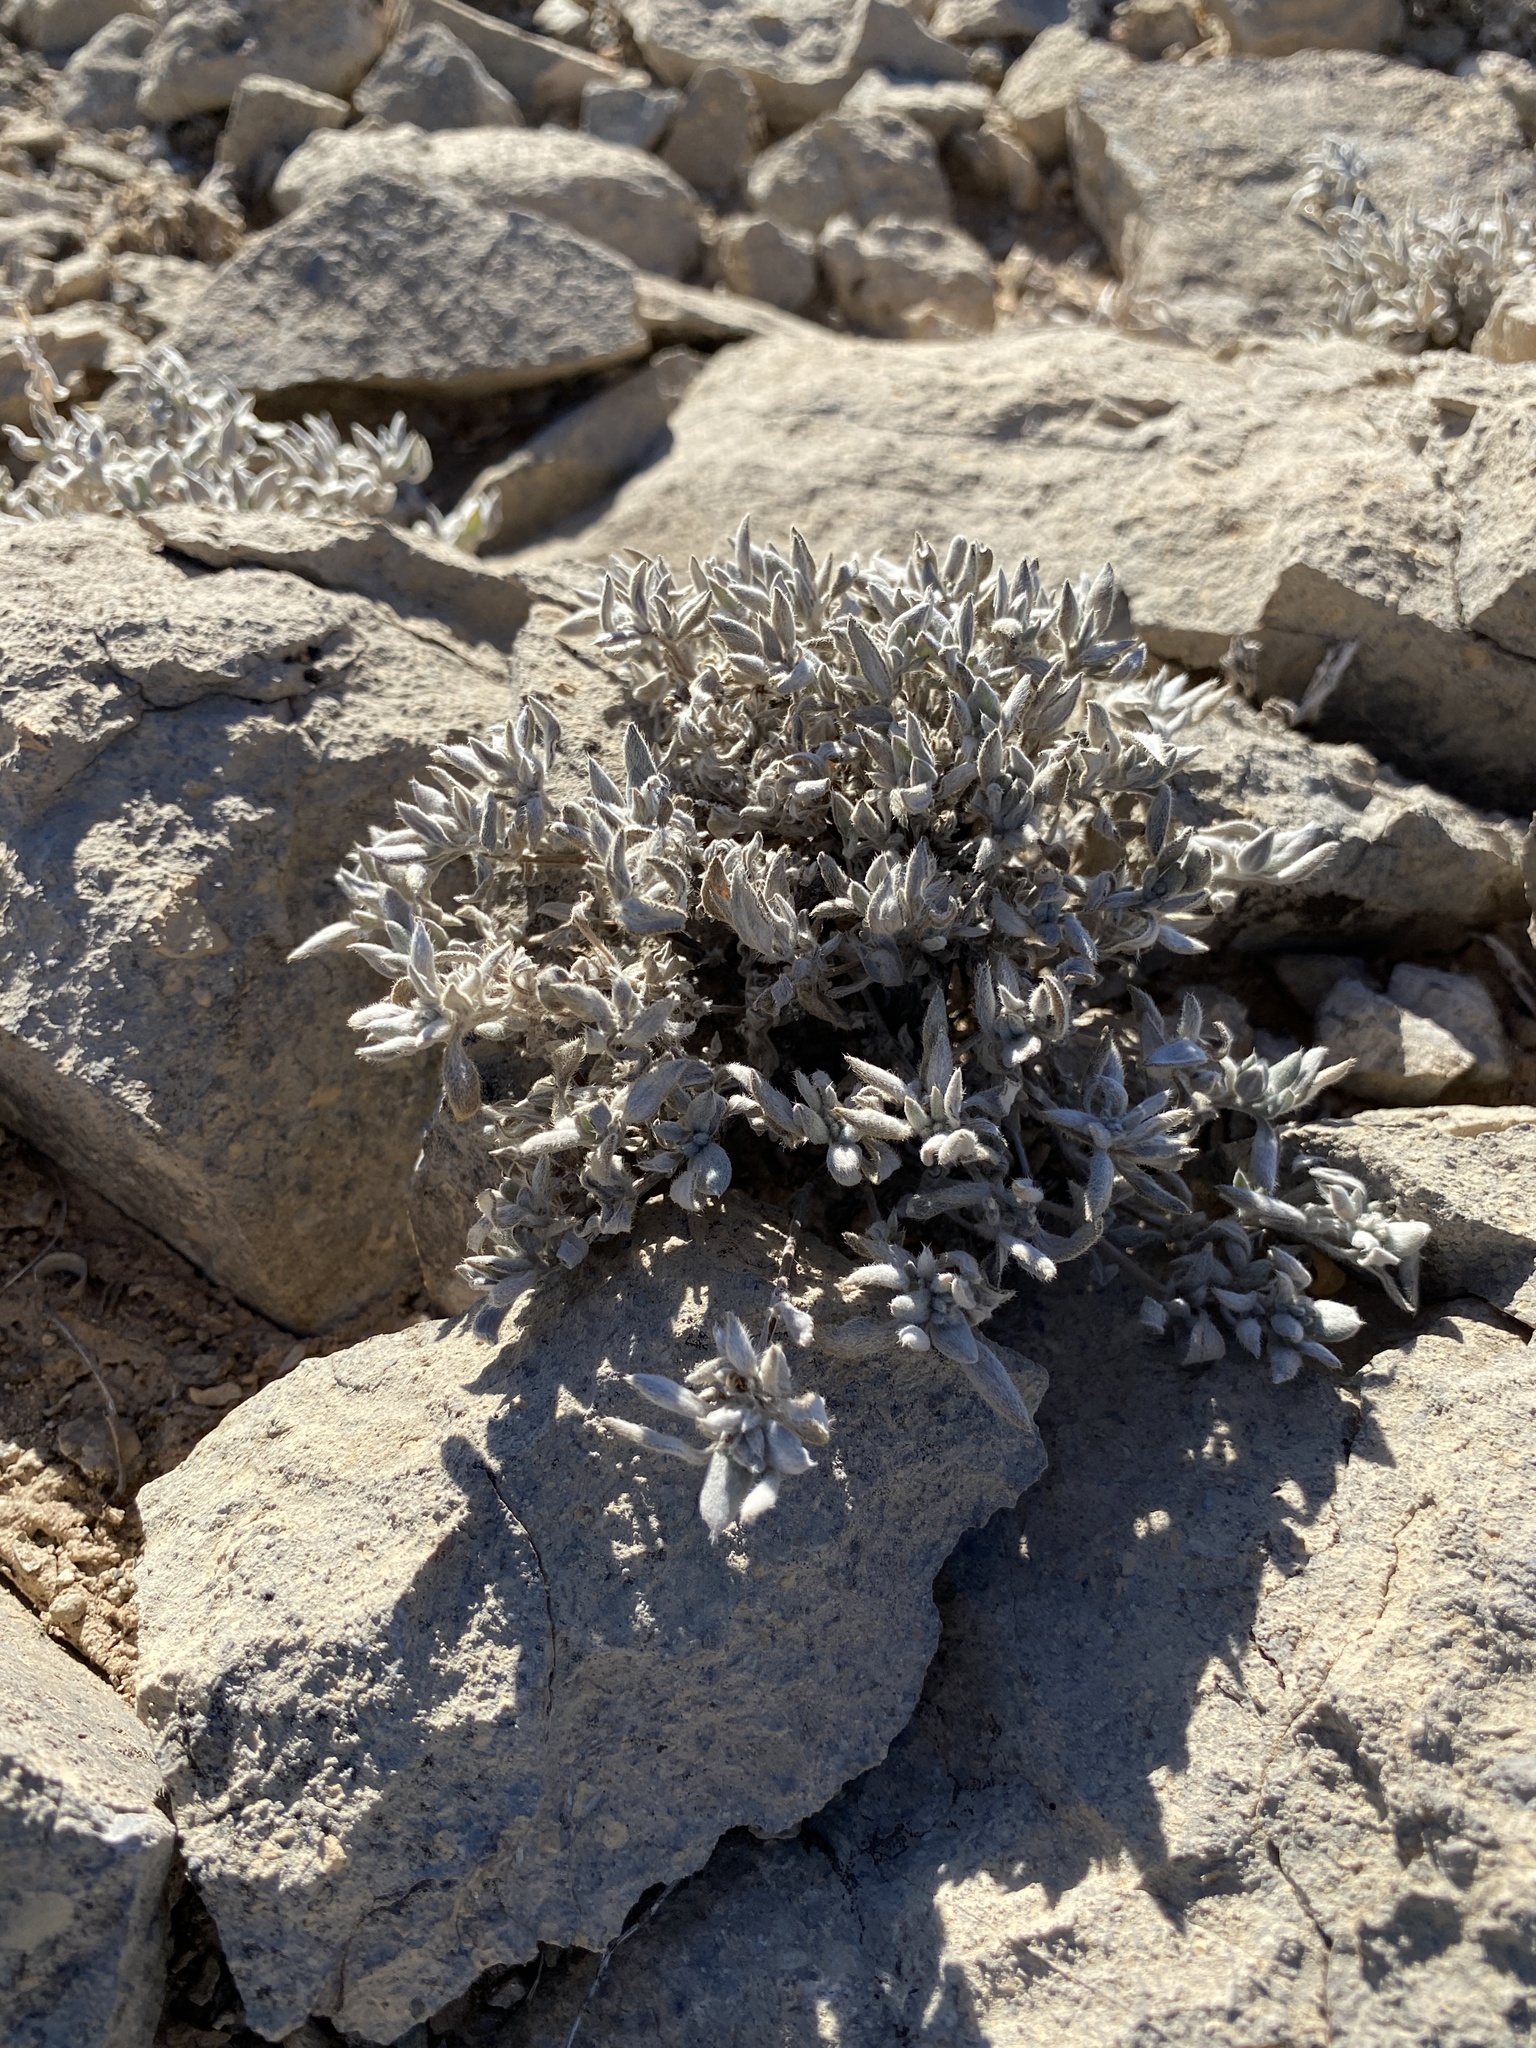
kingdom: Plantae
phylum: Tracheophyta
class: Magnoliopsida
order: Boraginales
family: Ehretiaceae
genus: Tiquilia
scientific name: Tiquilia canescens
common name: Hairy tiquilia
